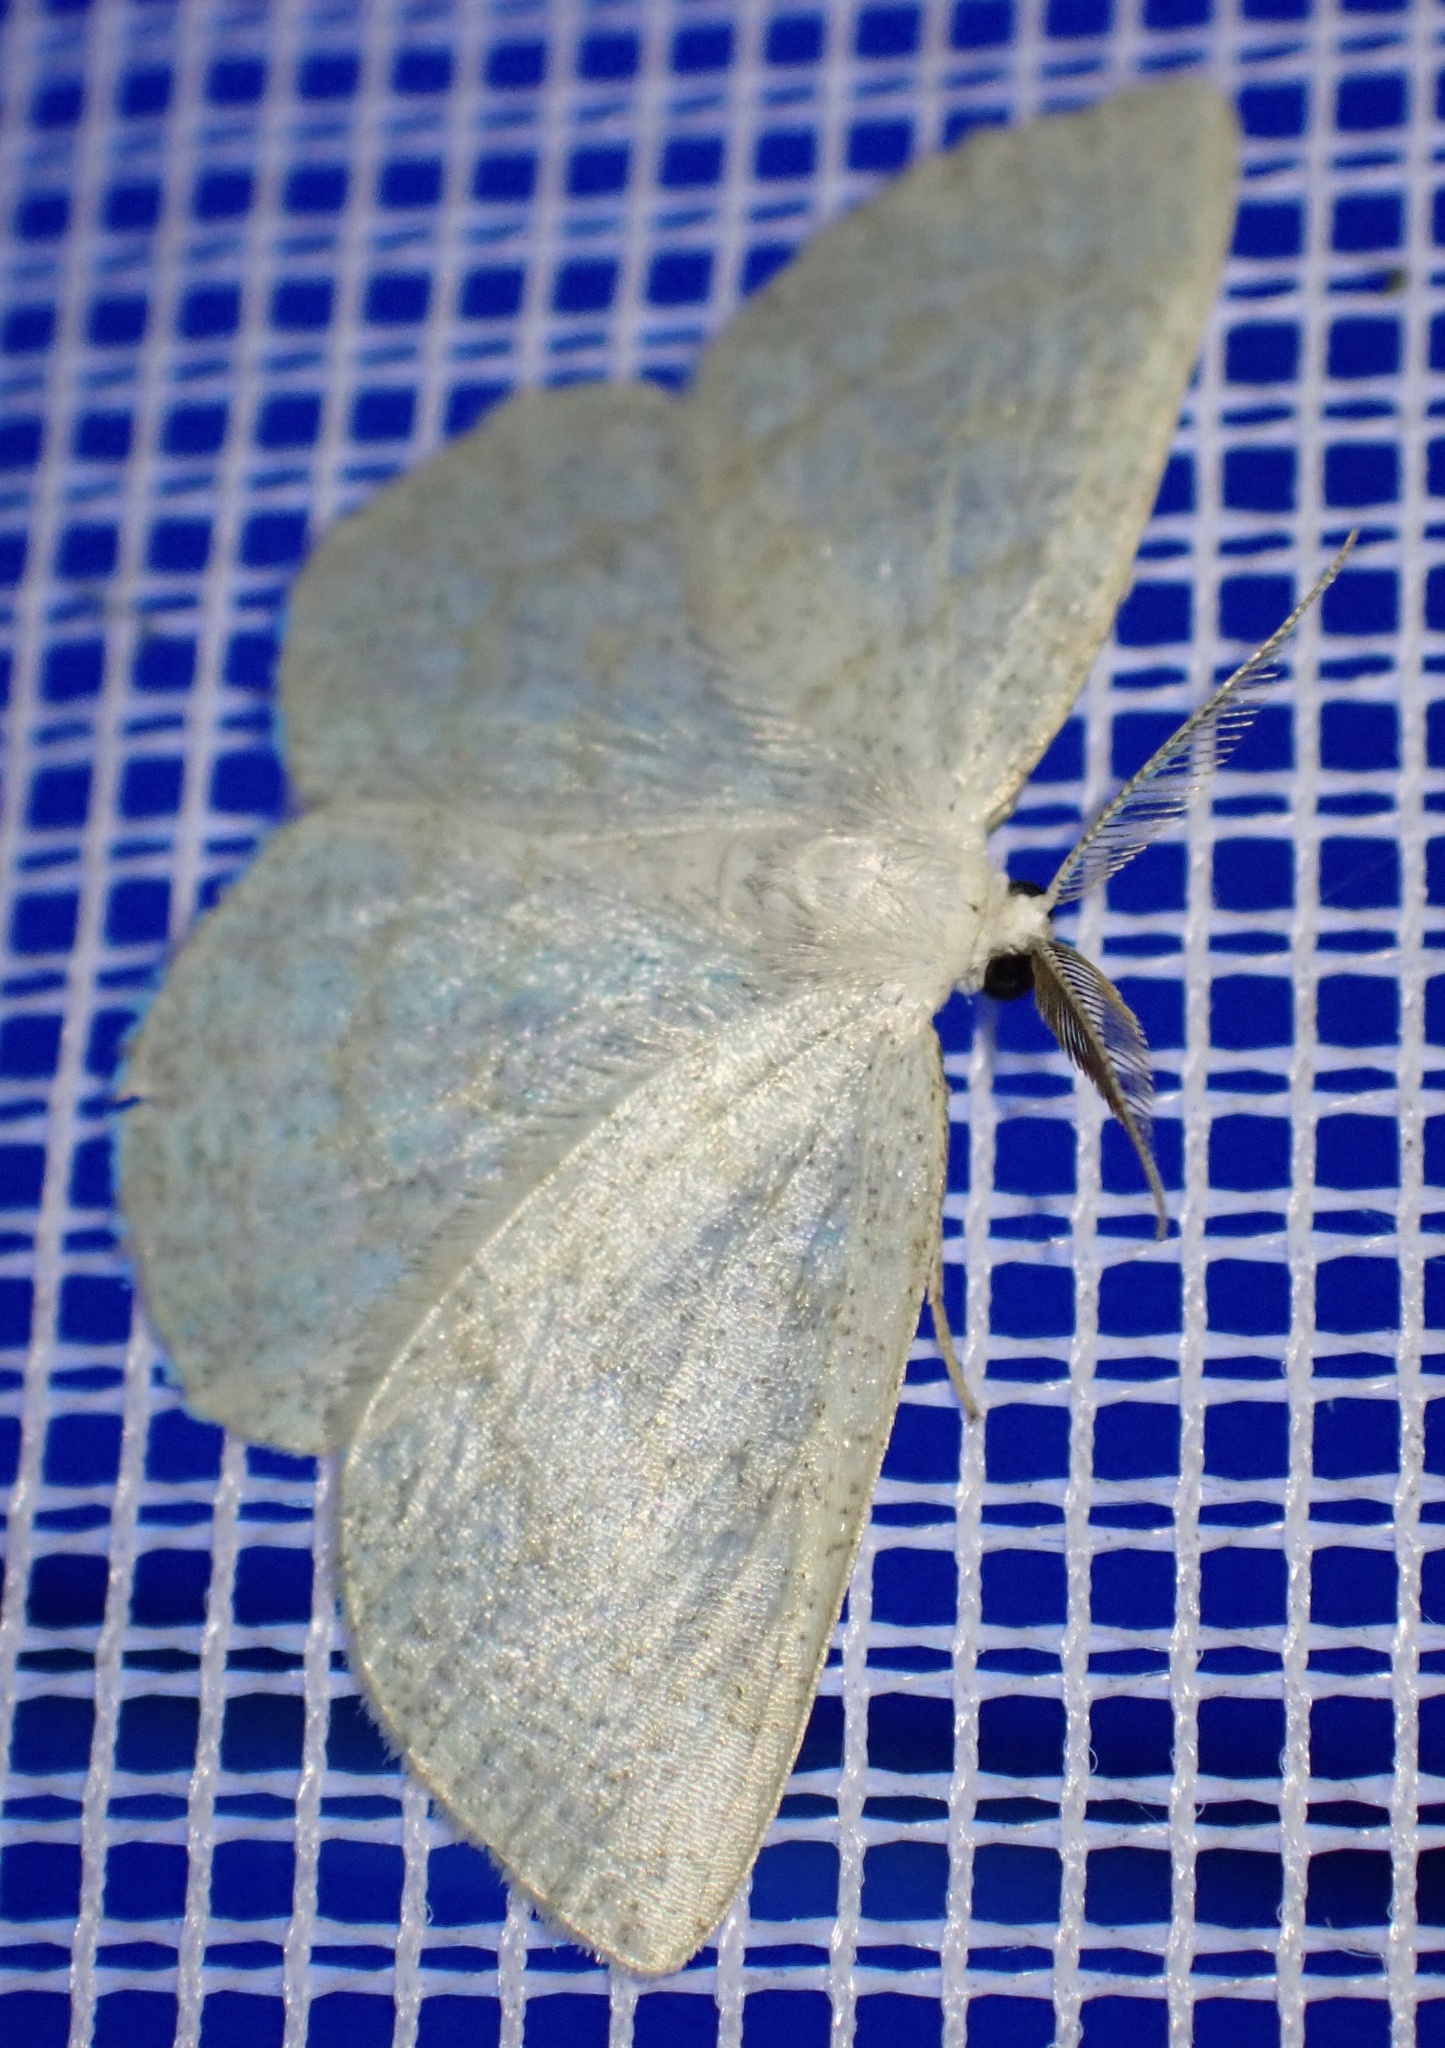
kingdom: Animalia
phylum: Arthropoda
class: Insecta
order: Lepidoptera
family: Geometridae
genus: Cabera
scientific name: Cabera exanthemata
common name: Common wave
